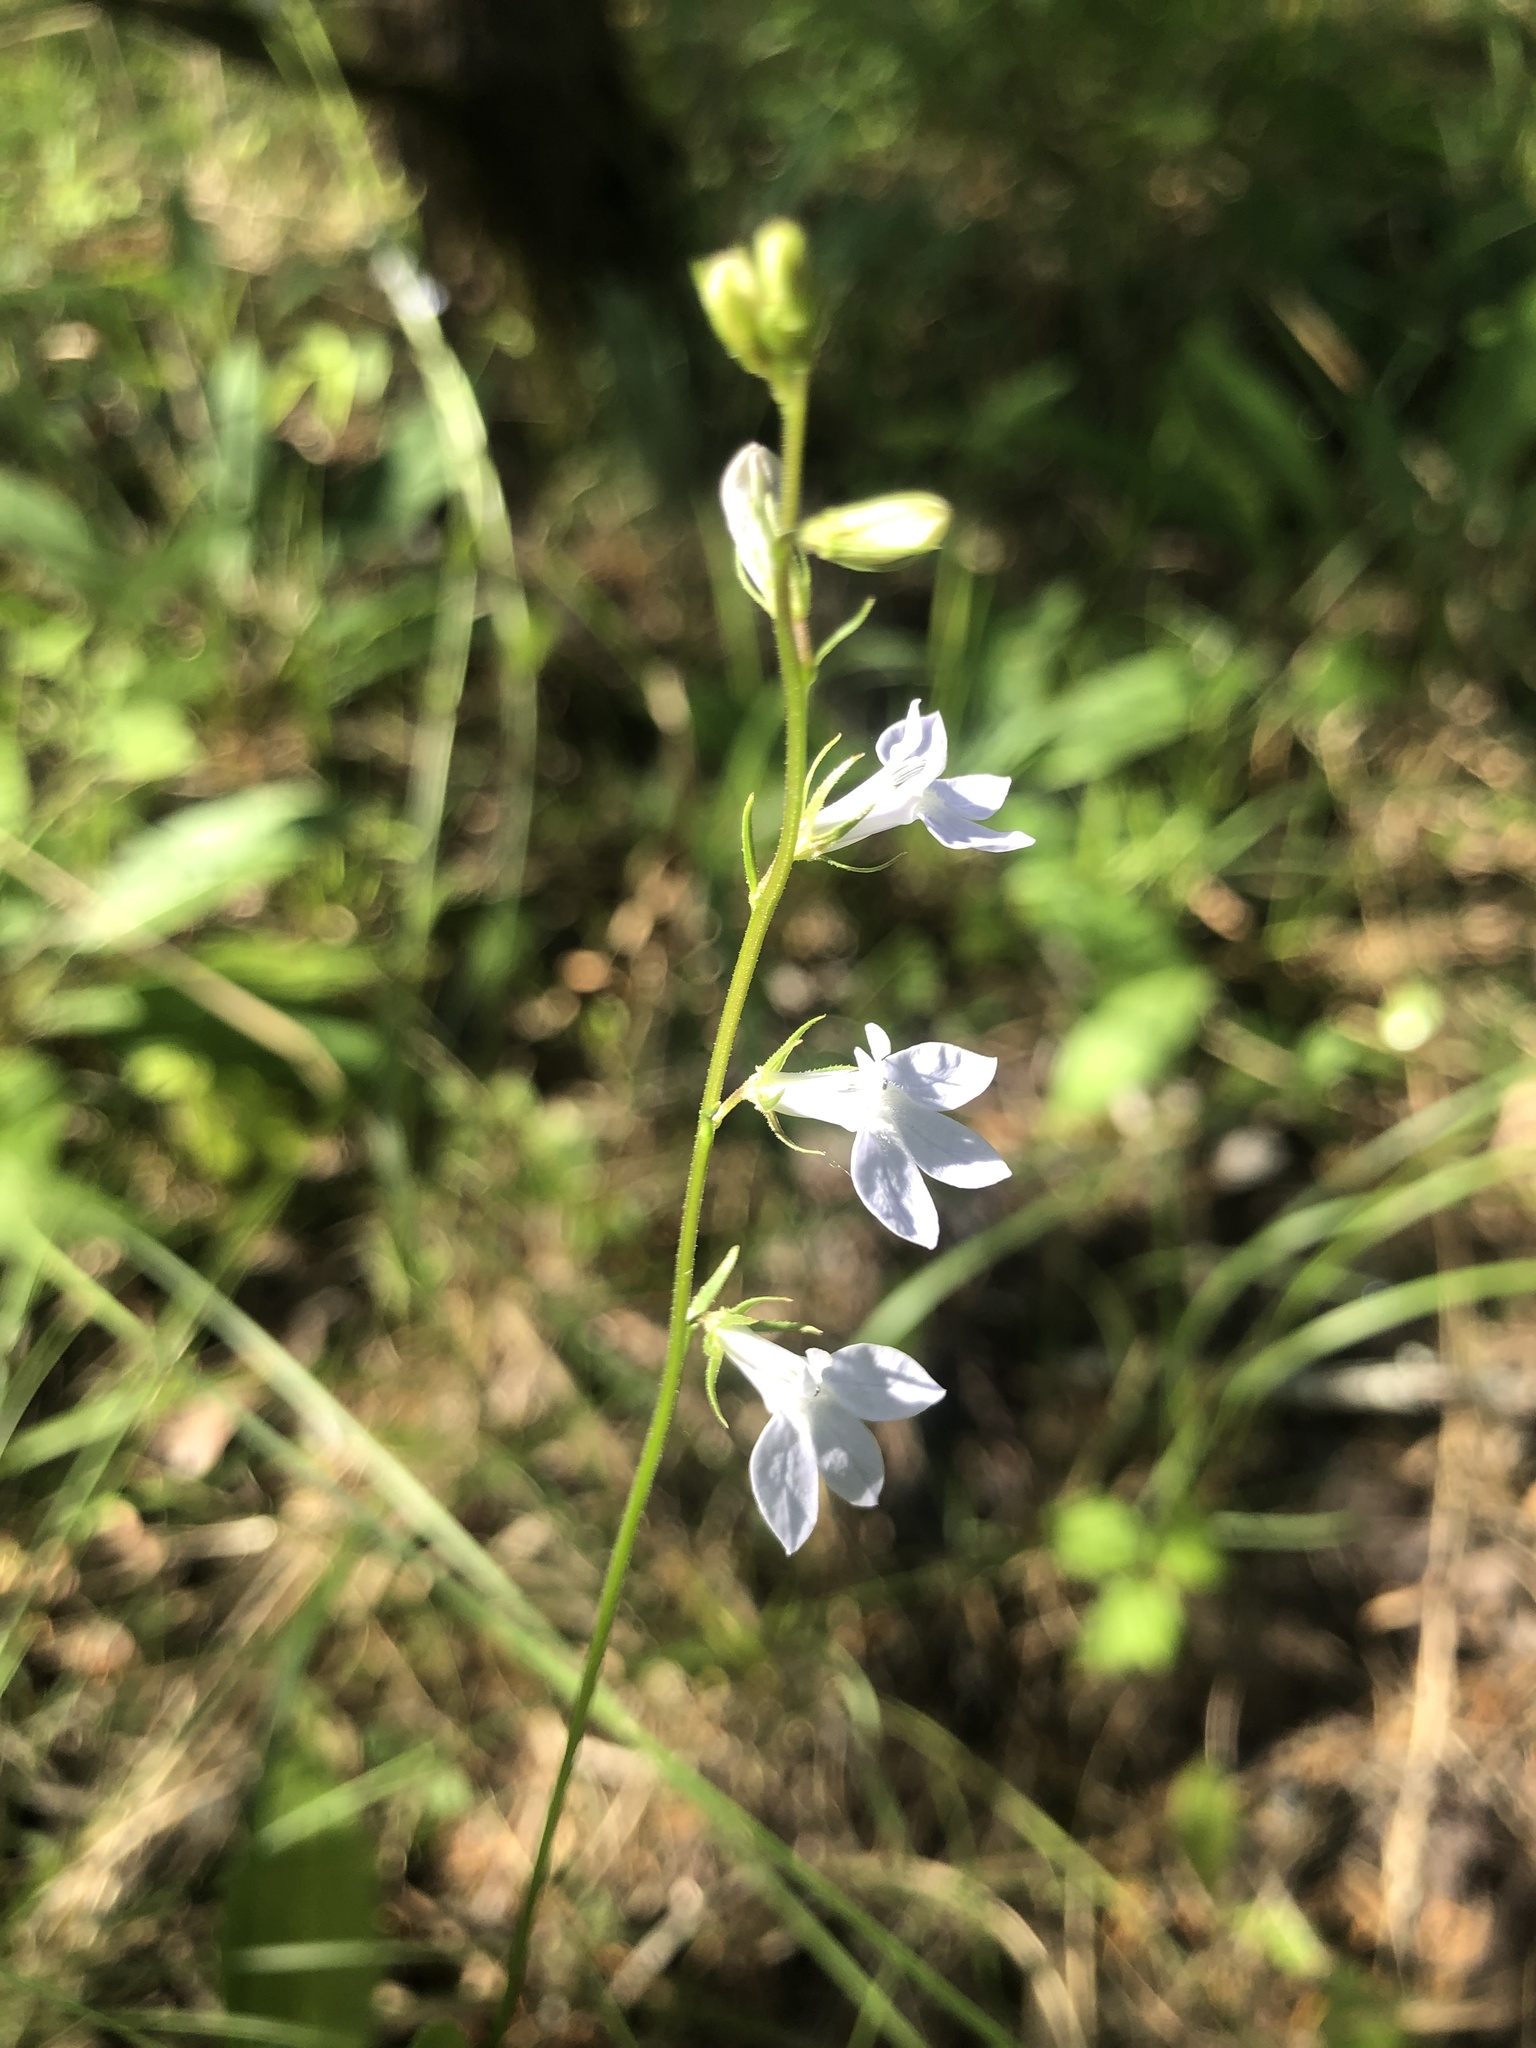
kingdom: Plantae
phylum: Tracheophyta
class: Magnoliopsida
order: Asterales
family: Campanulaceae
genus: Lobelia
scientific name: Lobelia appendiculata
